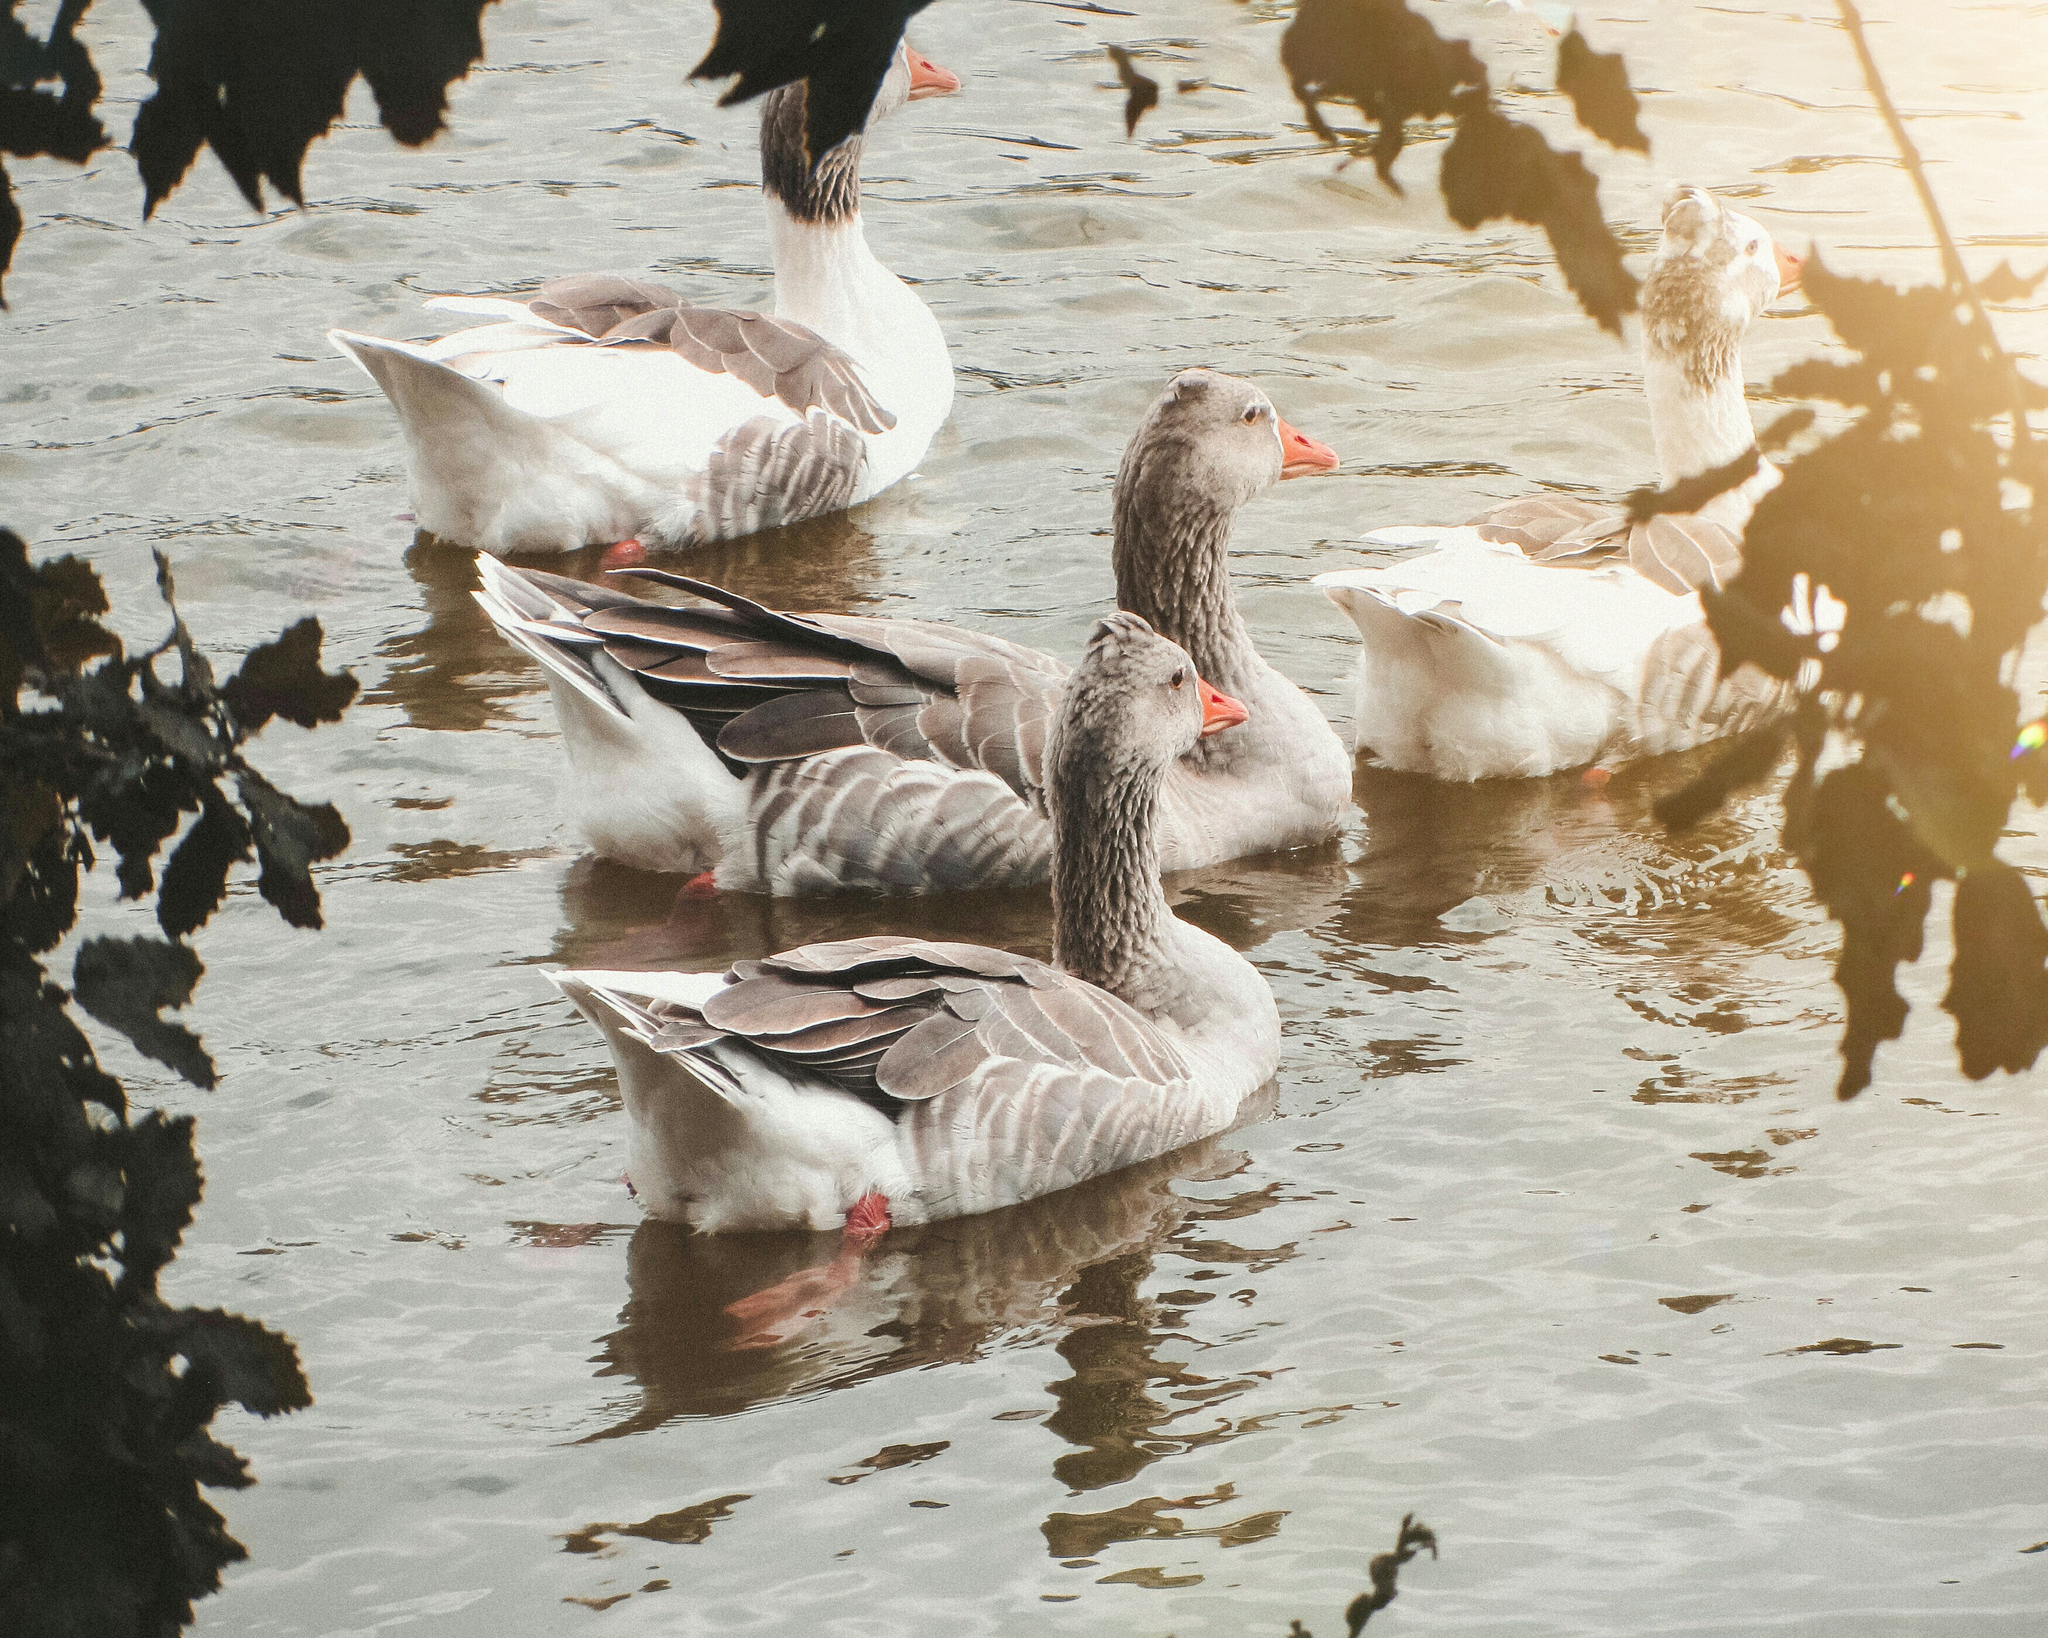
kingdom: Animalia
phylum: Chordata
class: Aves
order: Anseriformes
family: Anatidae
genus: Anser
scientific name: Anser anser
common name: Greylag goose
